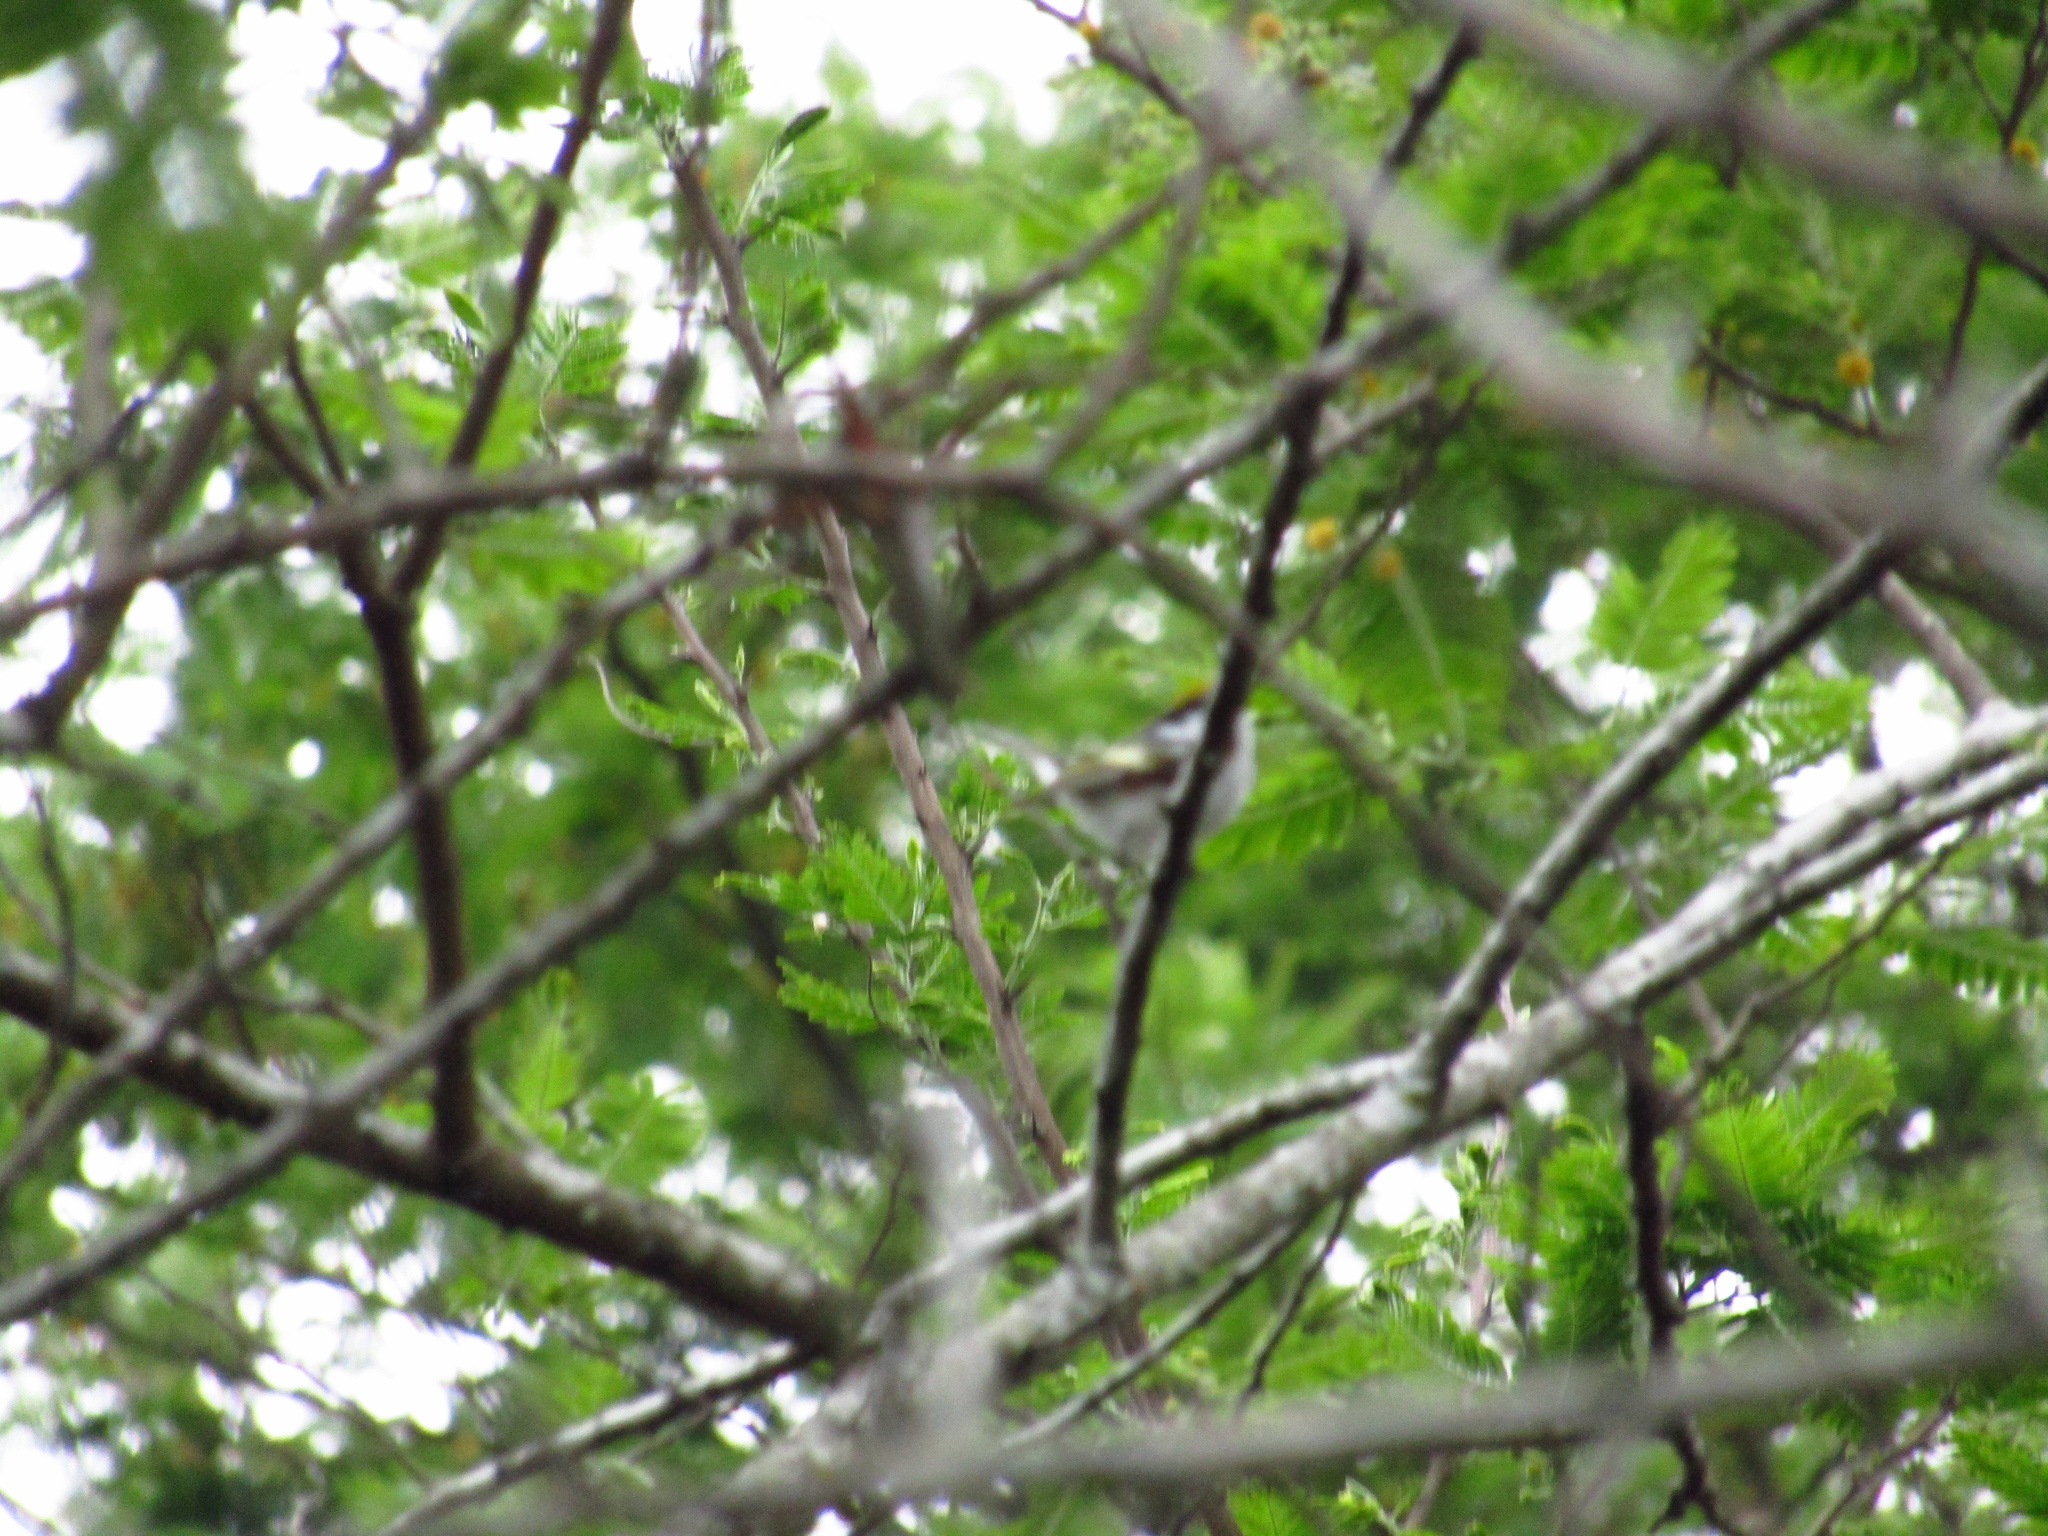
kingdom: Animalia
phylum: Chordata
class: Aves
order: Passeriformes
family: Parulidae
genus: Setophaga
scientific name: Setophaga pensylvanica
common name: Chestnut-sided warbler
